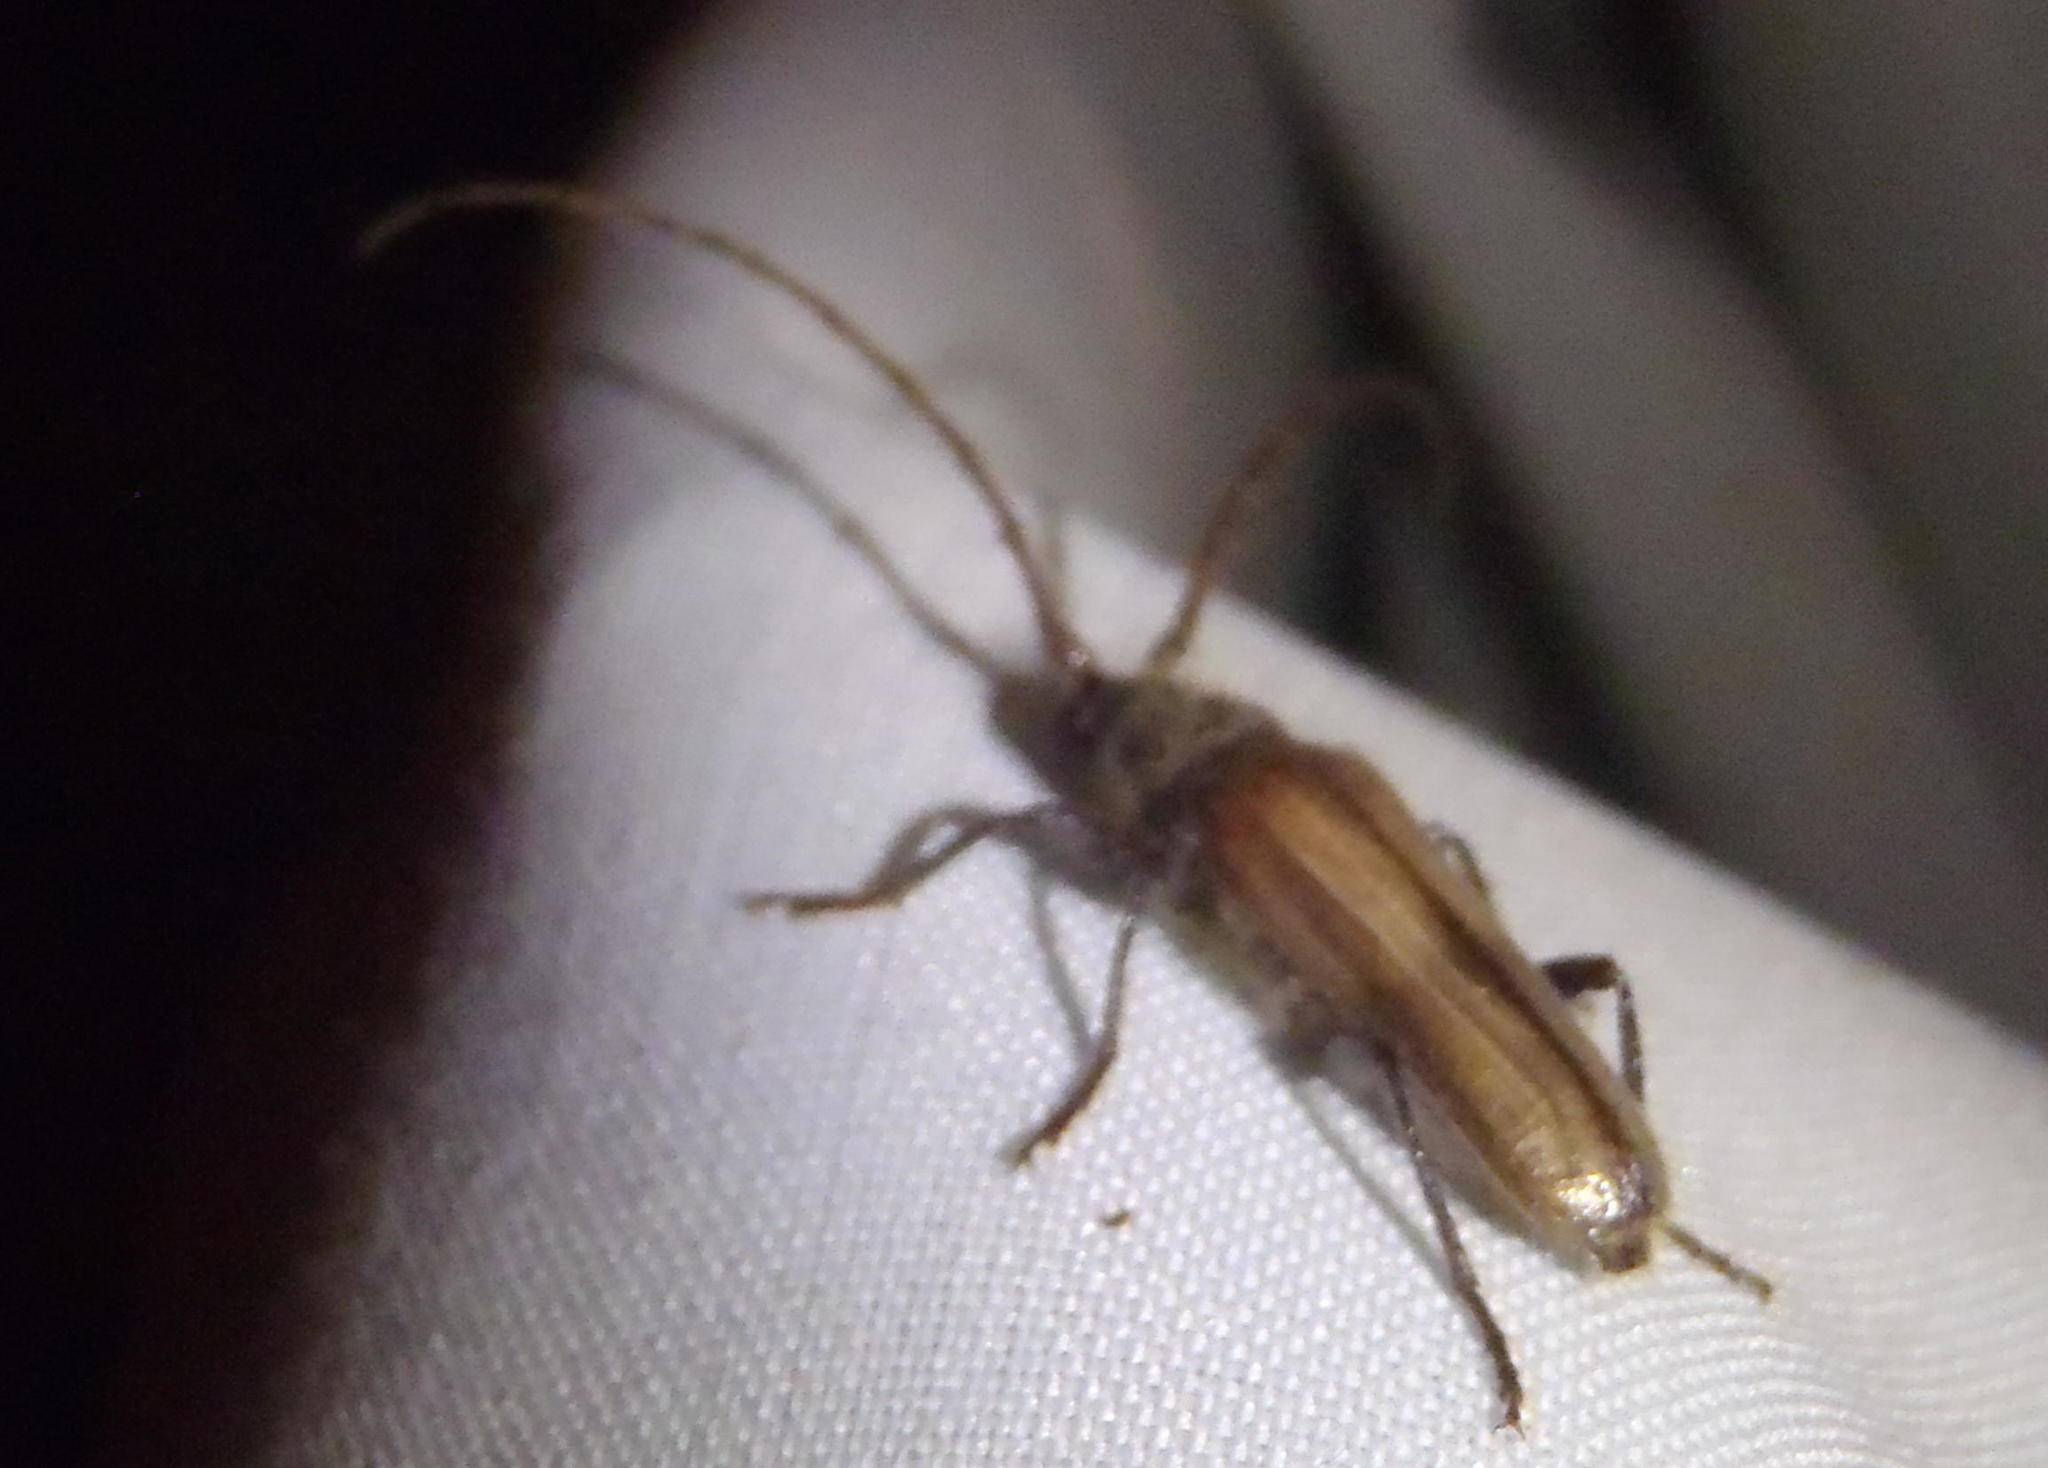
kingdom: Animalia
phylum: Arthropoda
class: Insecta
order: Coleoptera
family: Cerambycidae
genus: Crinarnoldius
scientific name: Crinarnoldius maculatus
